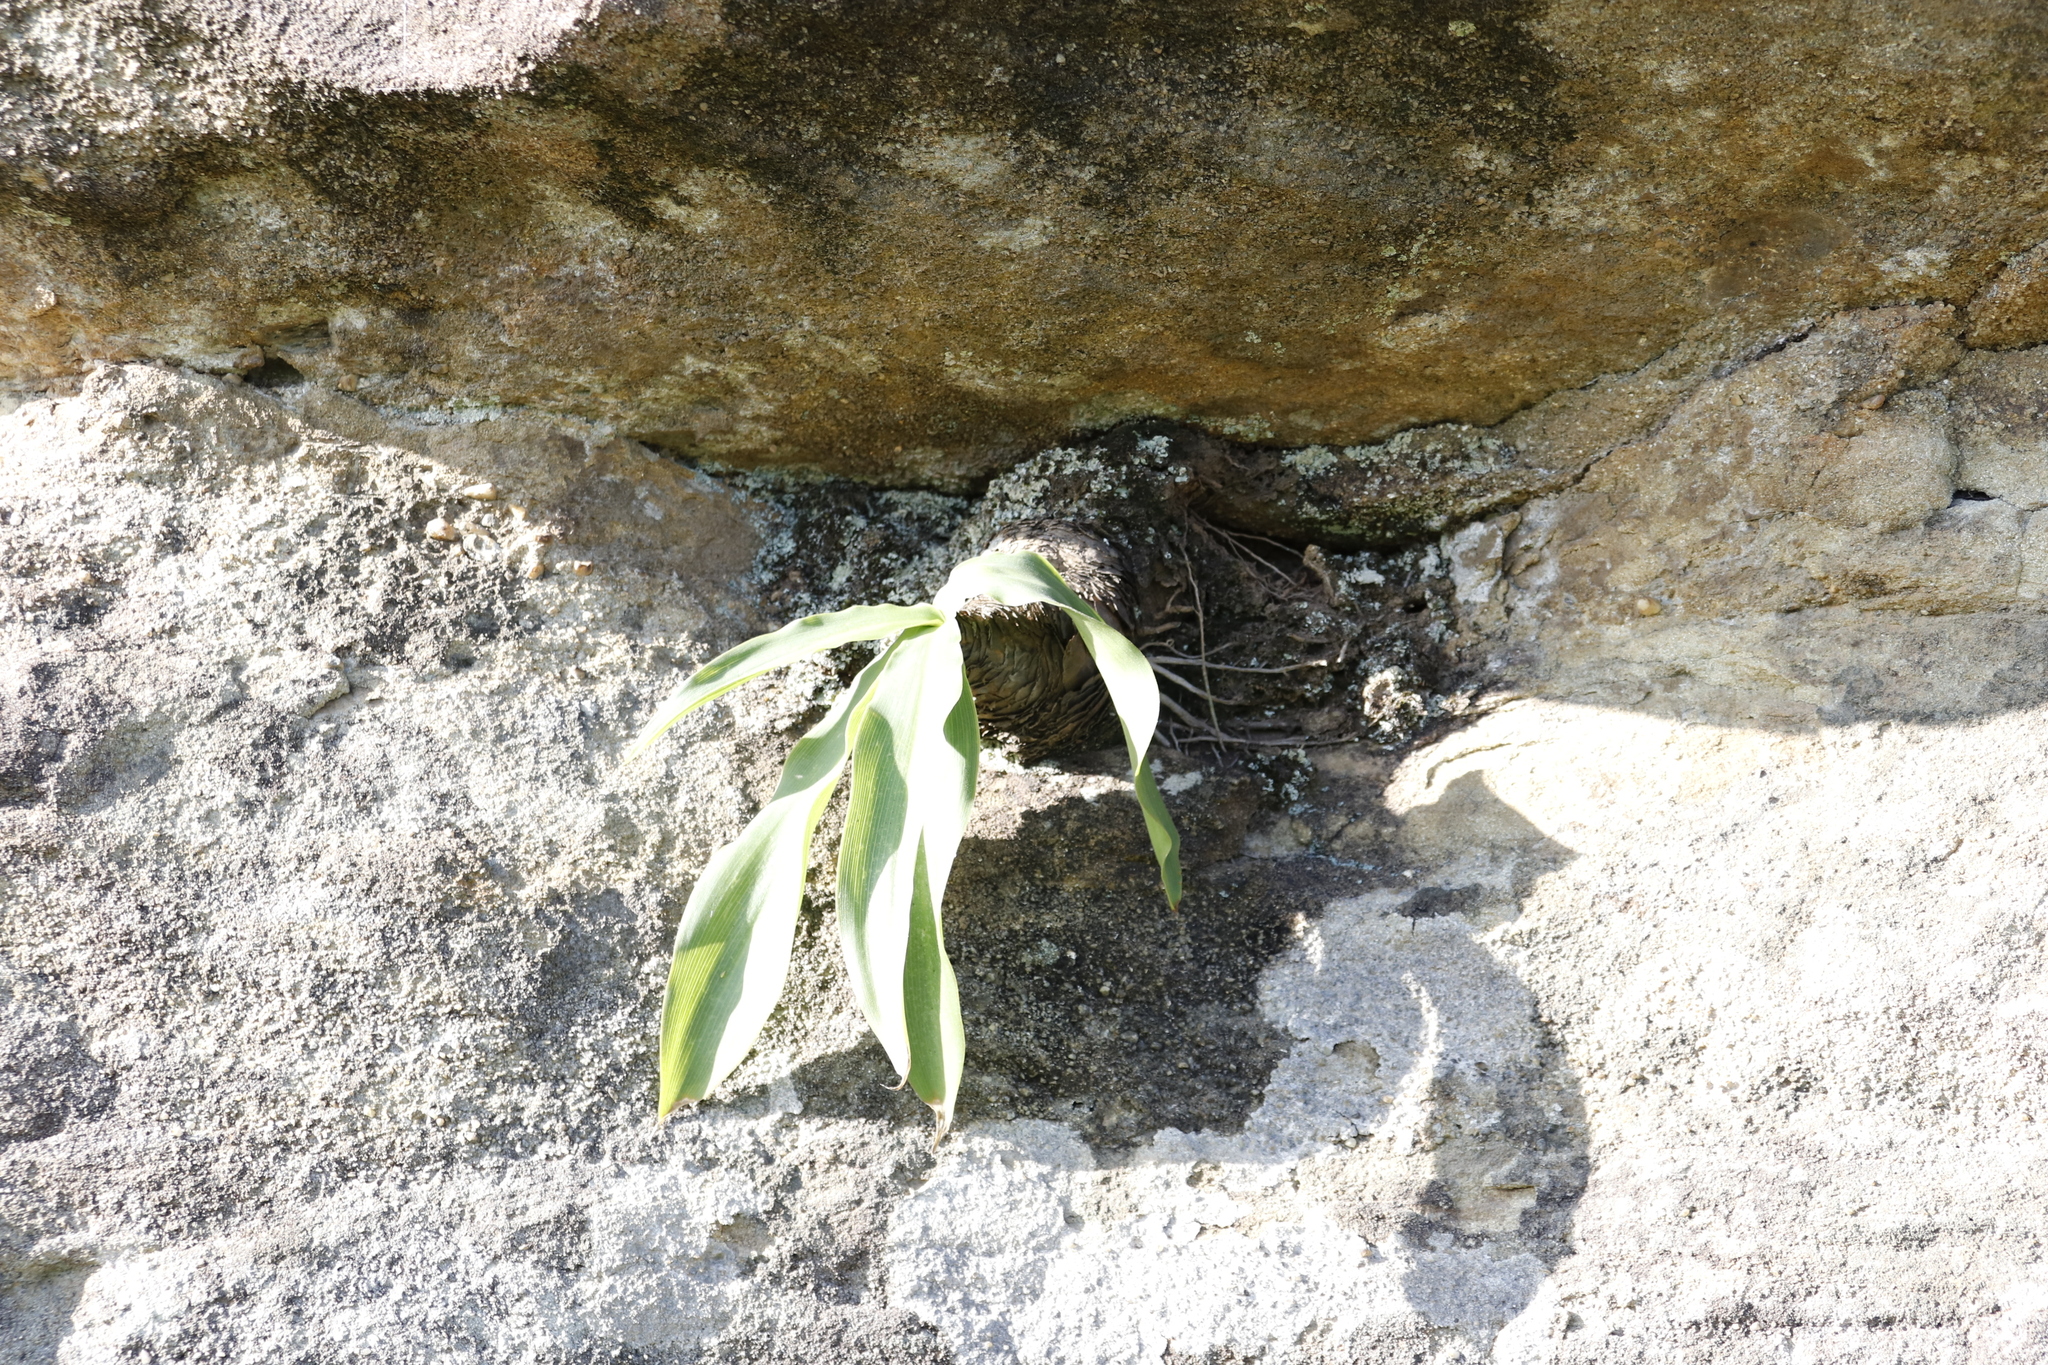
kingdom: Plantae
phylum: Tracheophyta
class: Liliopsida
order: Asparagales
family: Asparagaceae
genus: Merwilla
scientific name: Merwilla plumbea
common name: Blue-squill
